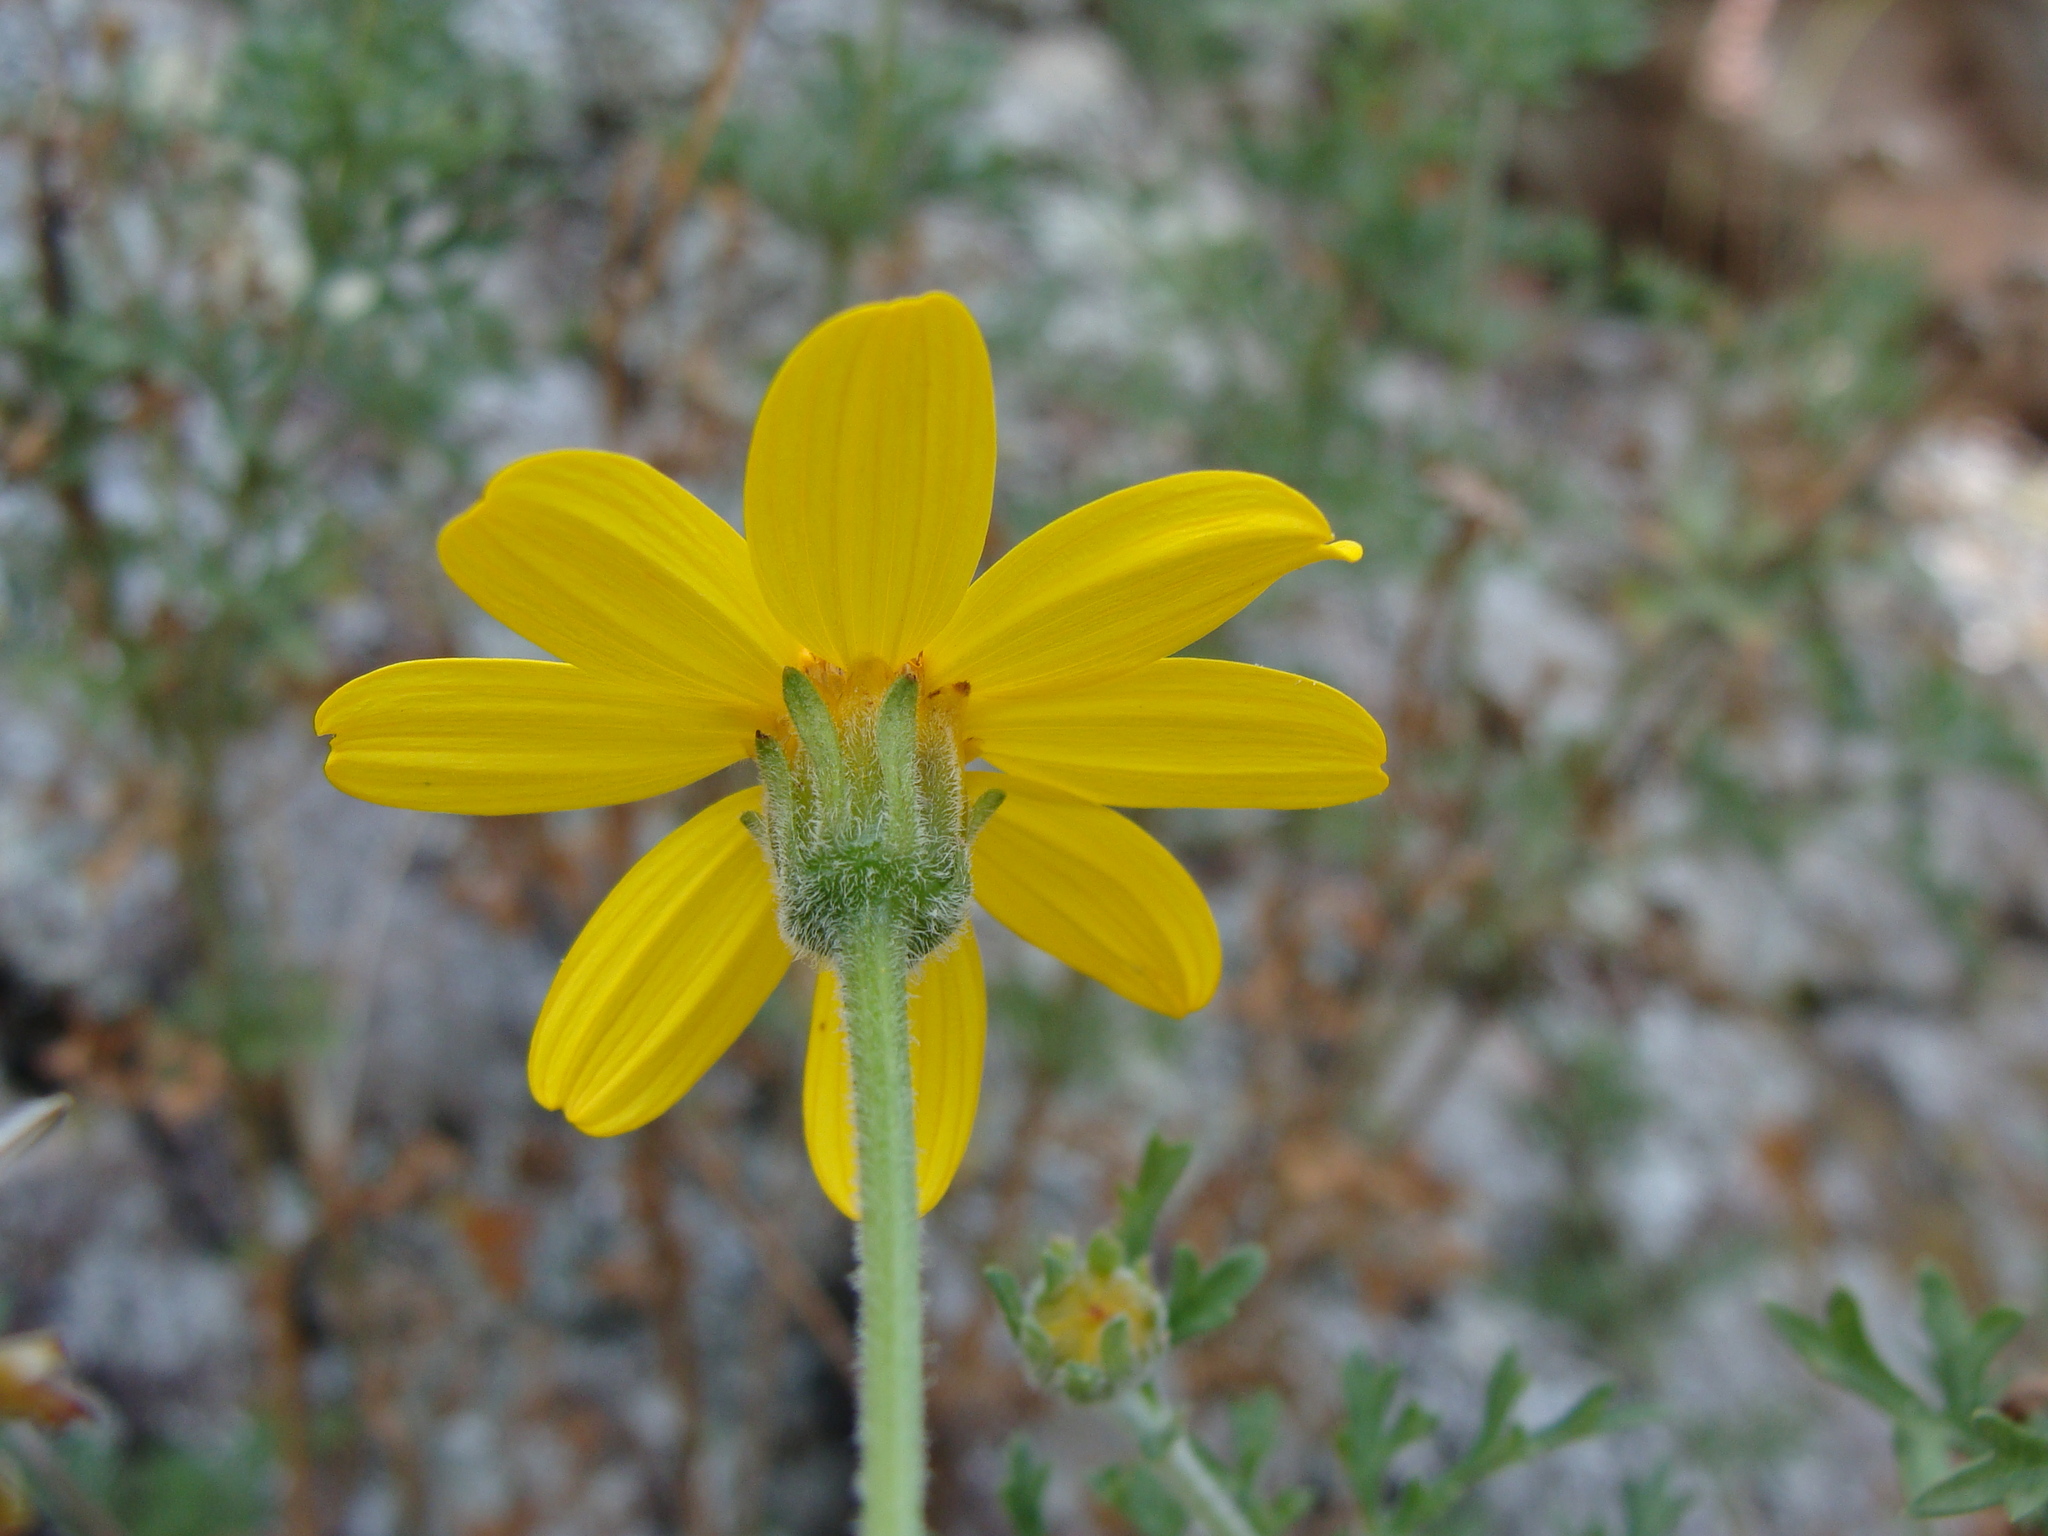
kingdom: Plantae
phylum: Tracheophyta
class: Magnoliopsida
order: Asterales
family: Asteraceae
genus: Coreopsis
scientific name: Coreopsis guanajuatensis
